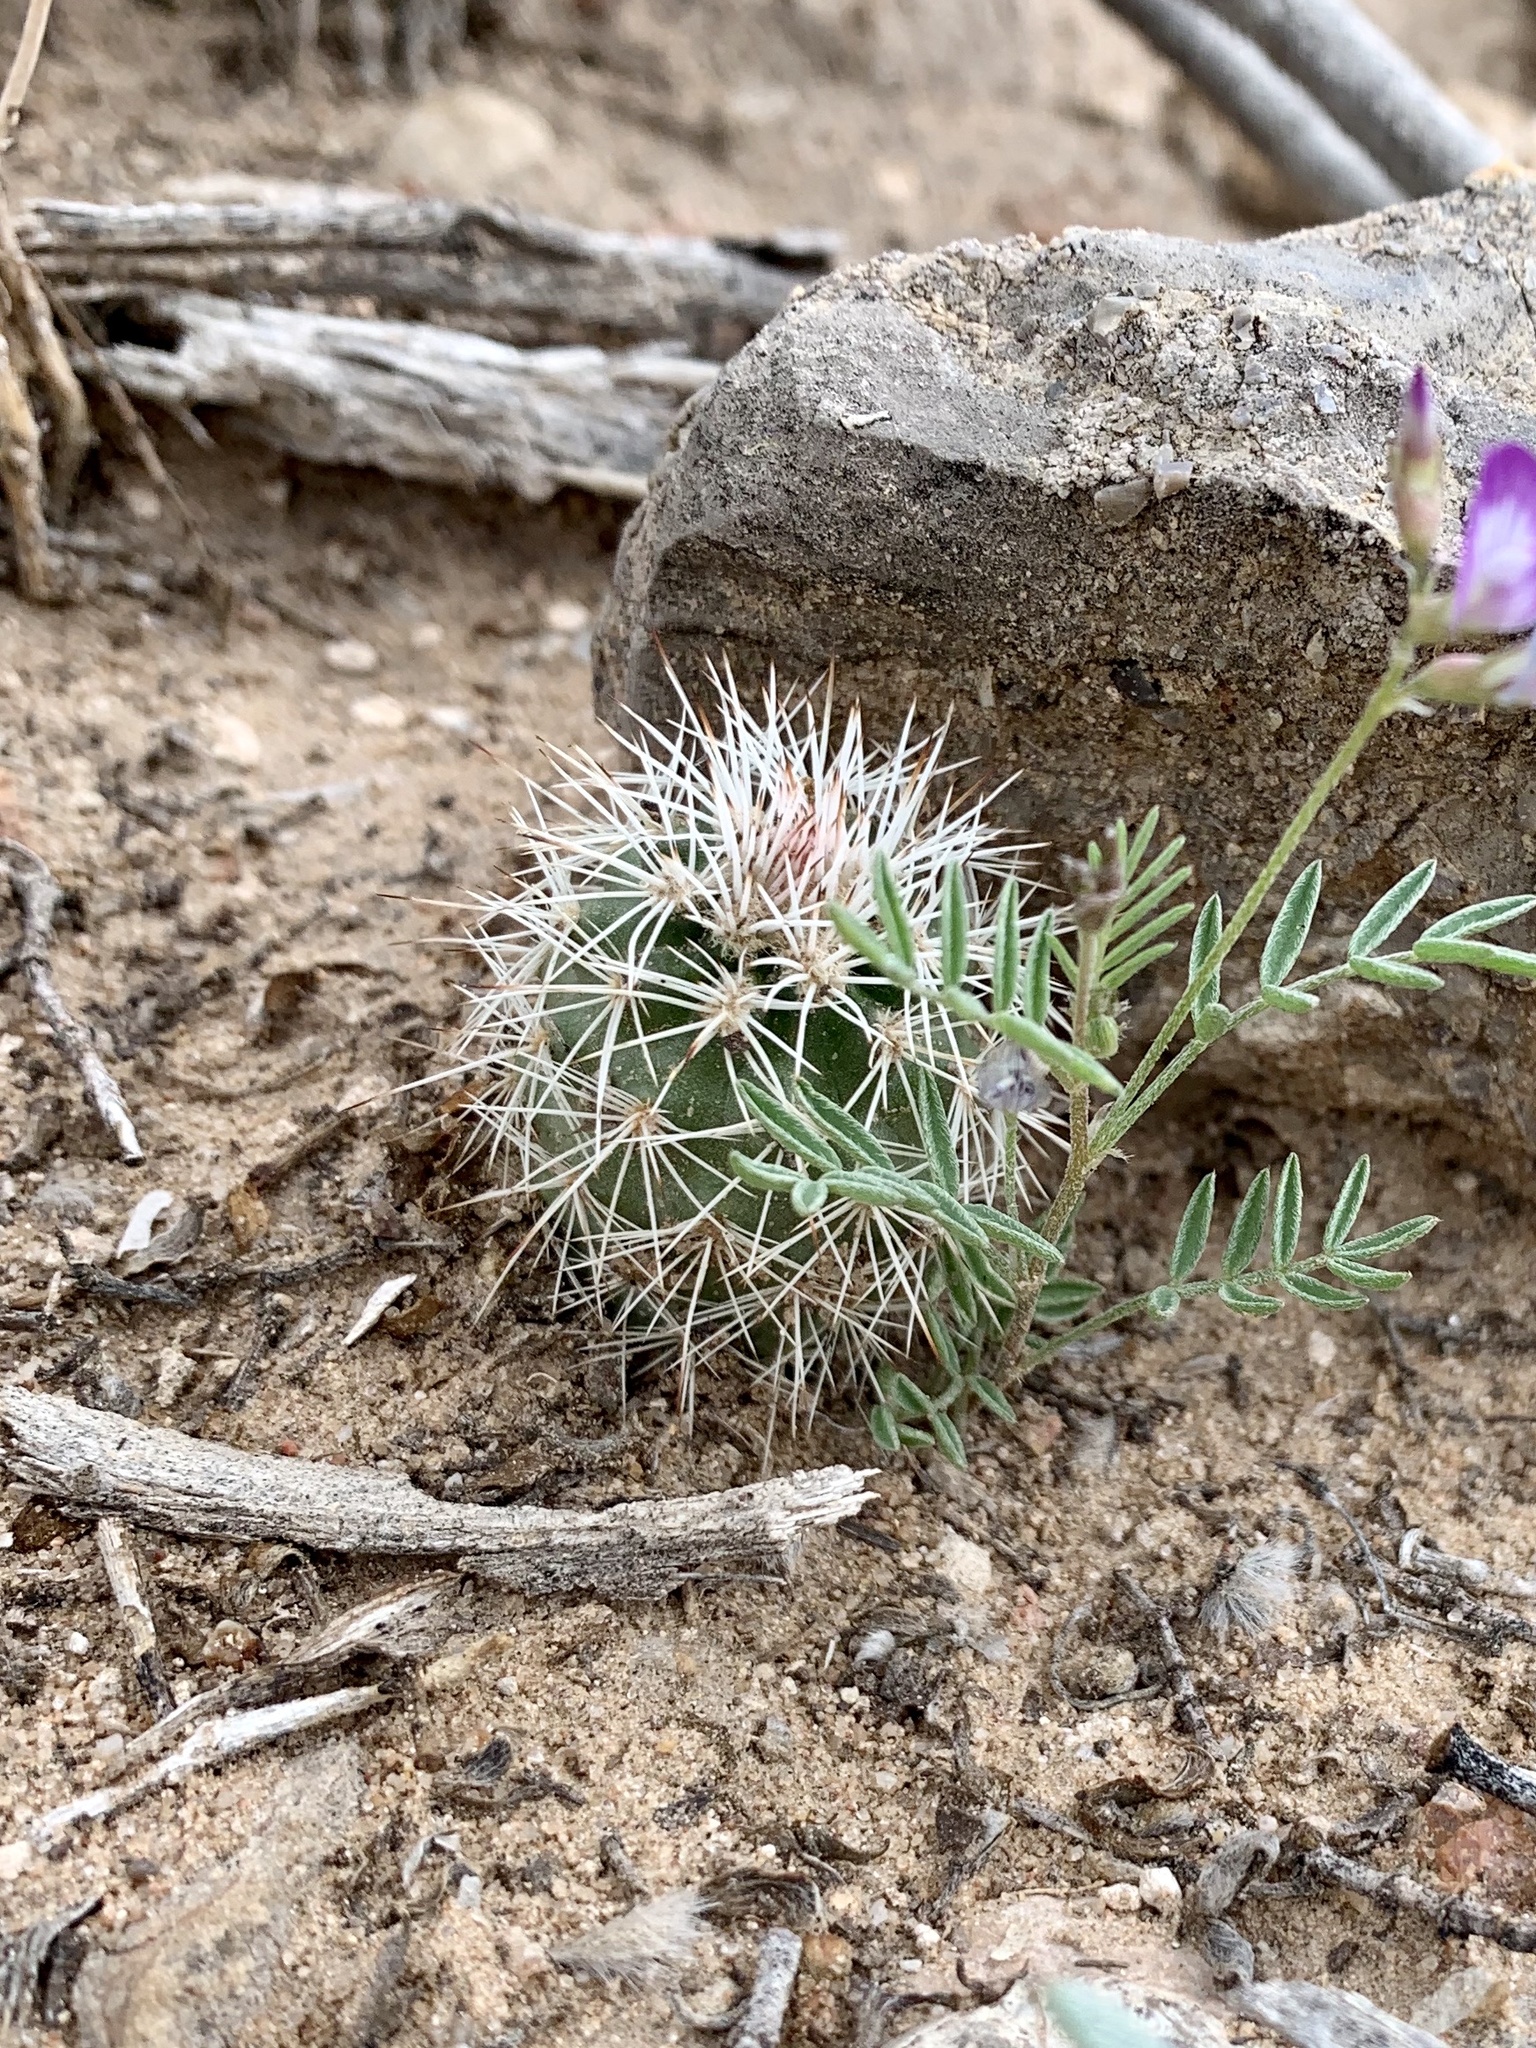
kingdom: Plantae
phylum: Tracheophyta
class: Magnoliopsida
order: Caryophyllales
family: Cactaceae
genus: Echinocereus
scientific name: Echinocereus dasyacanthus
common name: Spiny hedgehog cactus
